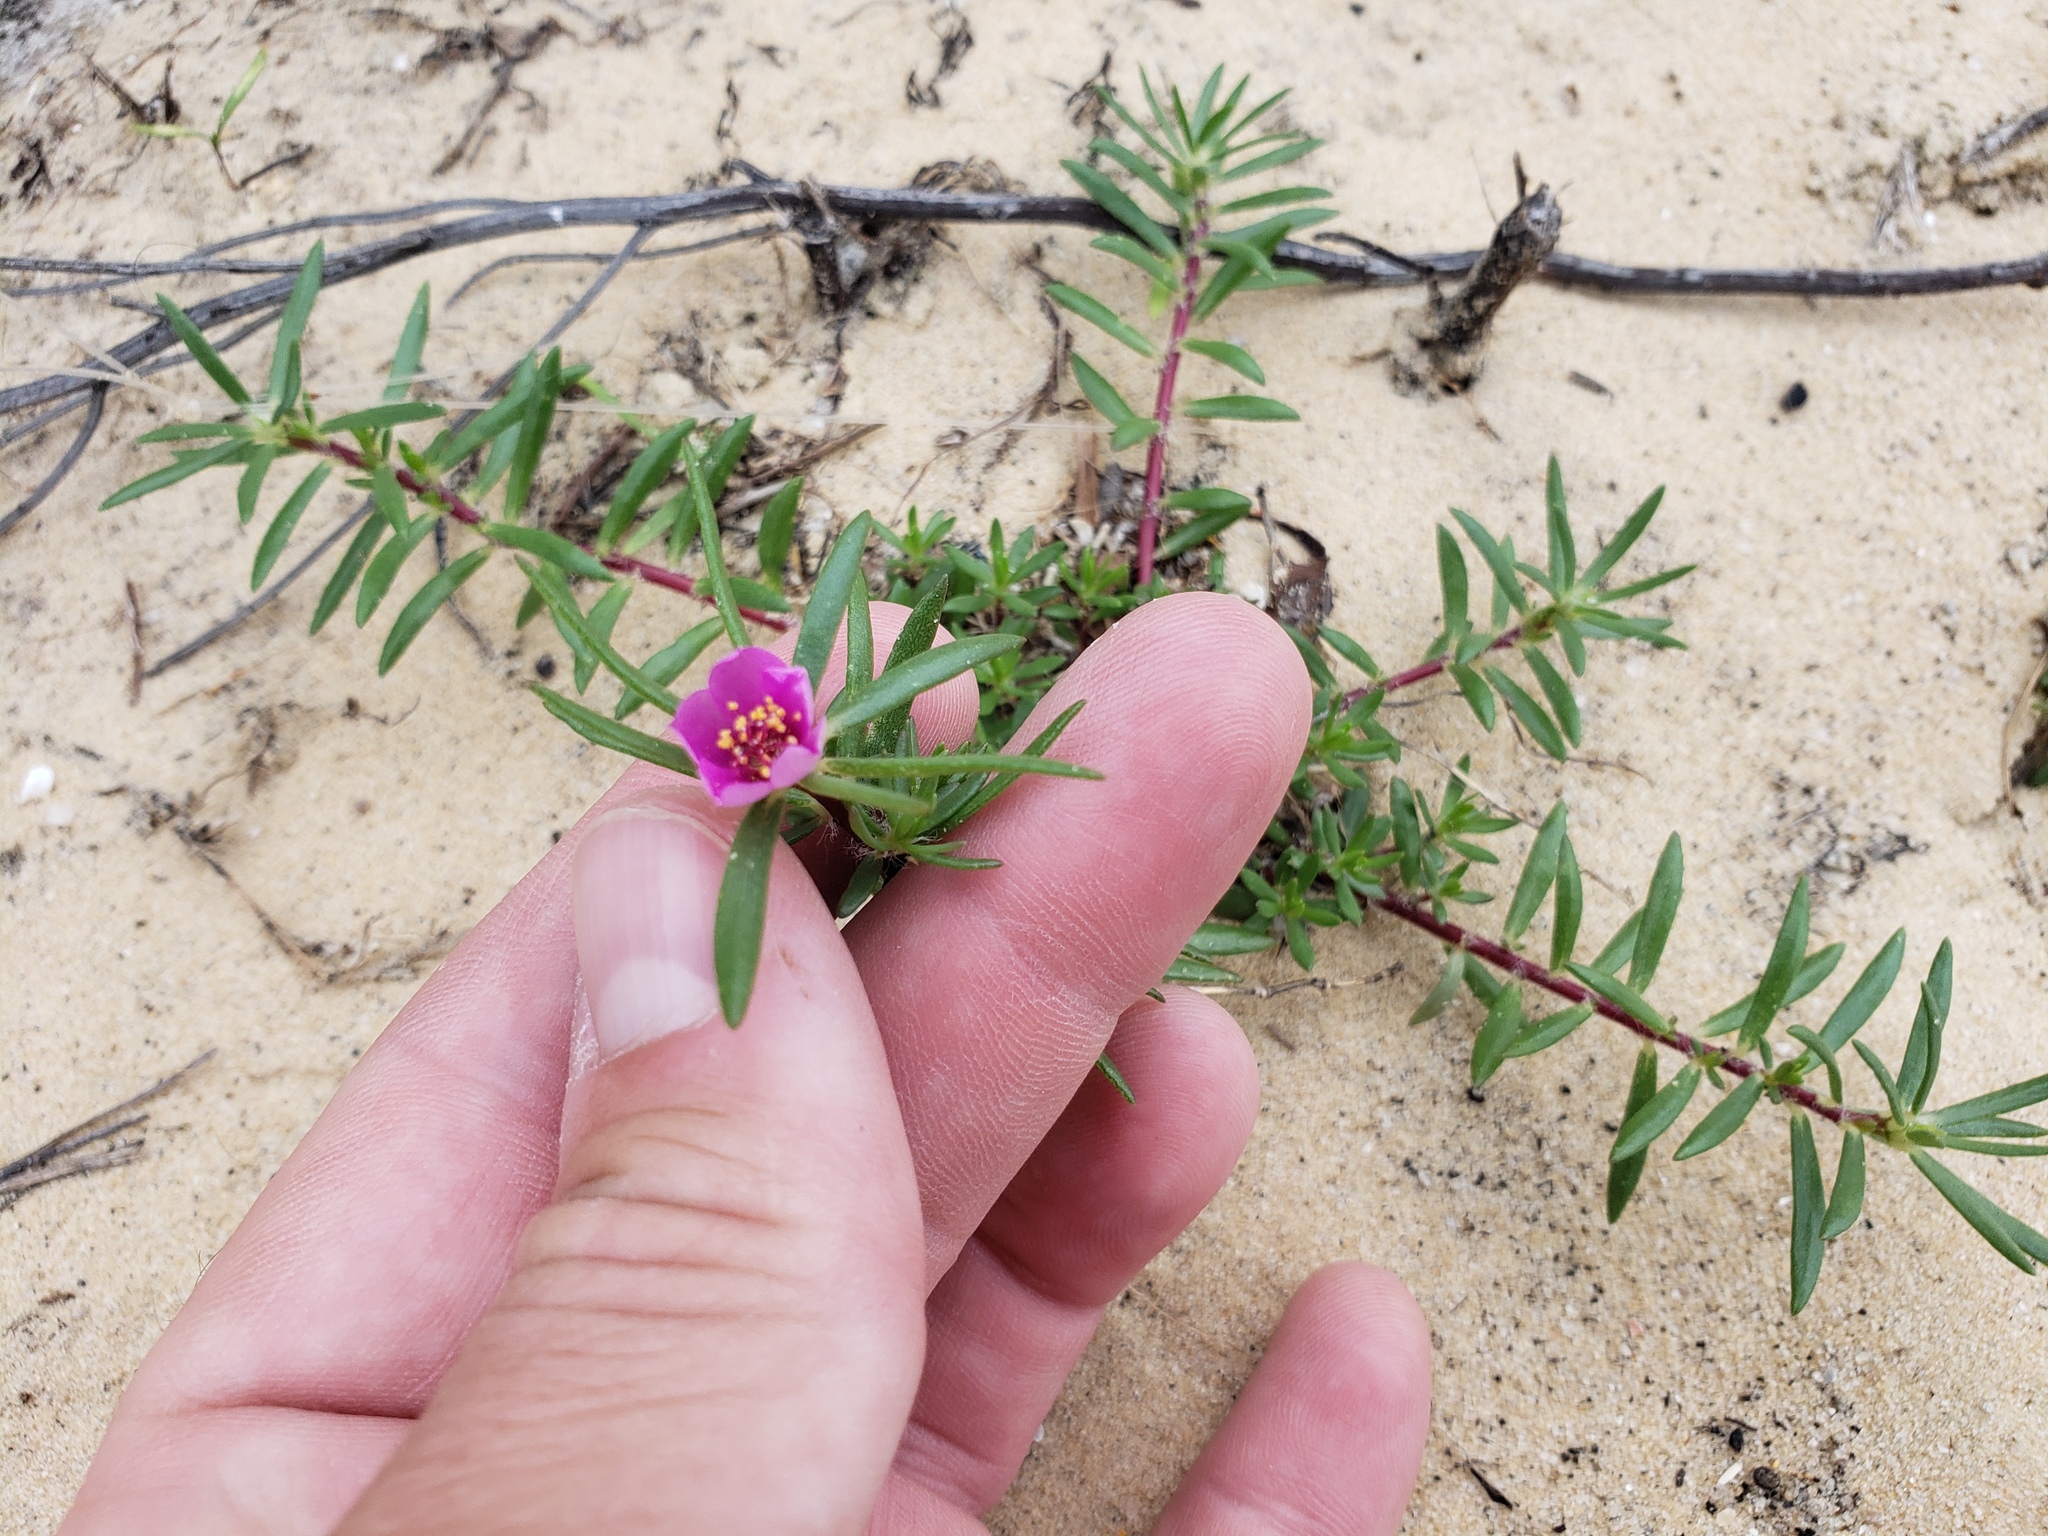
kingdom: Plantae
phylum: Tracheophyta
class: Magnoliopsida
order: Caryophyllales
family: Portulacaceae
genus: Portulaca
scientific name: Portulaca pilosa
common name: Kiss me quick
